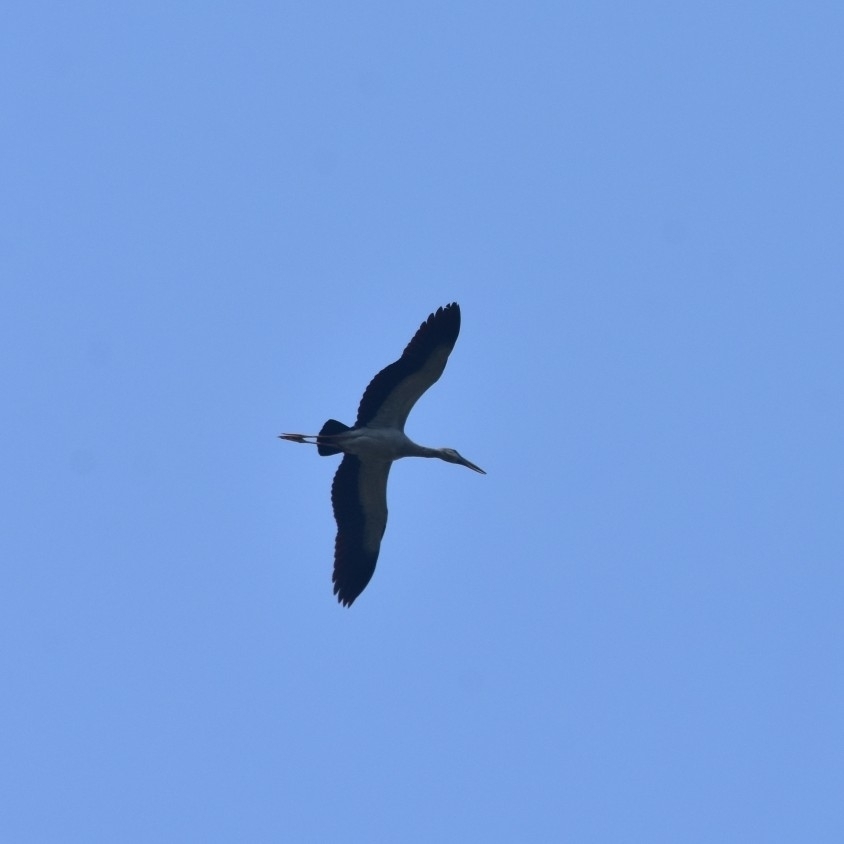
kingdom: Animalia
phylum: Chordata
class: Aves
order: Ciconiiformes
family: Ciconiidae
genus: Anastomus
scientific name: Anastomus oscitans
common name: Asian openbill
